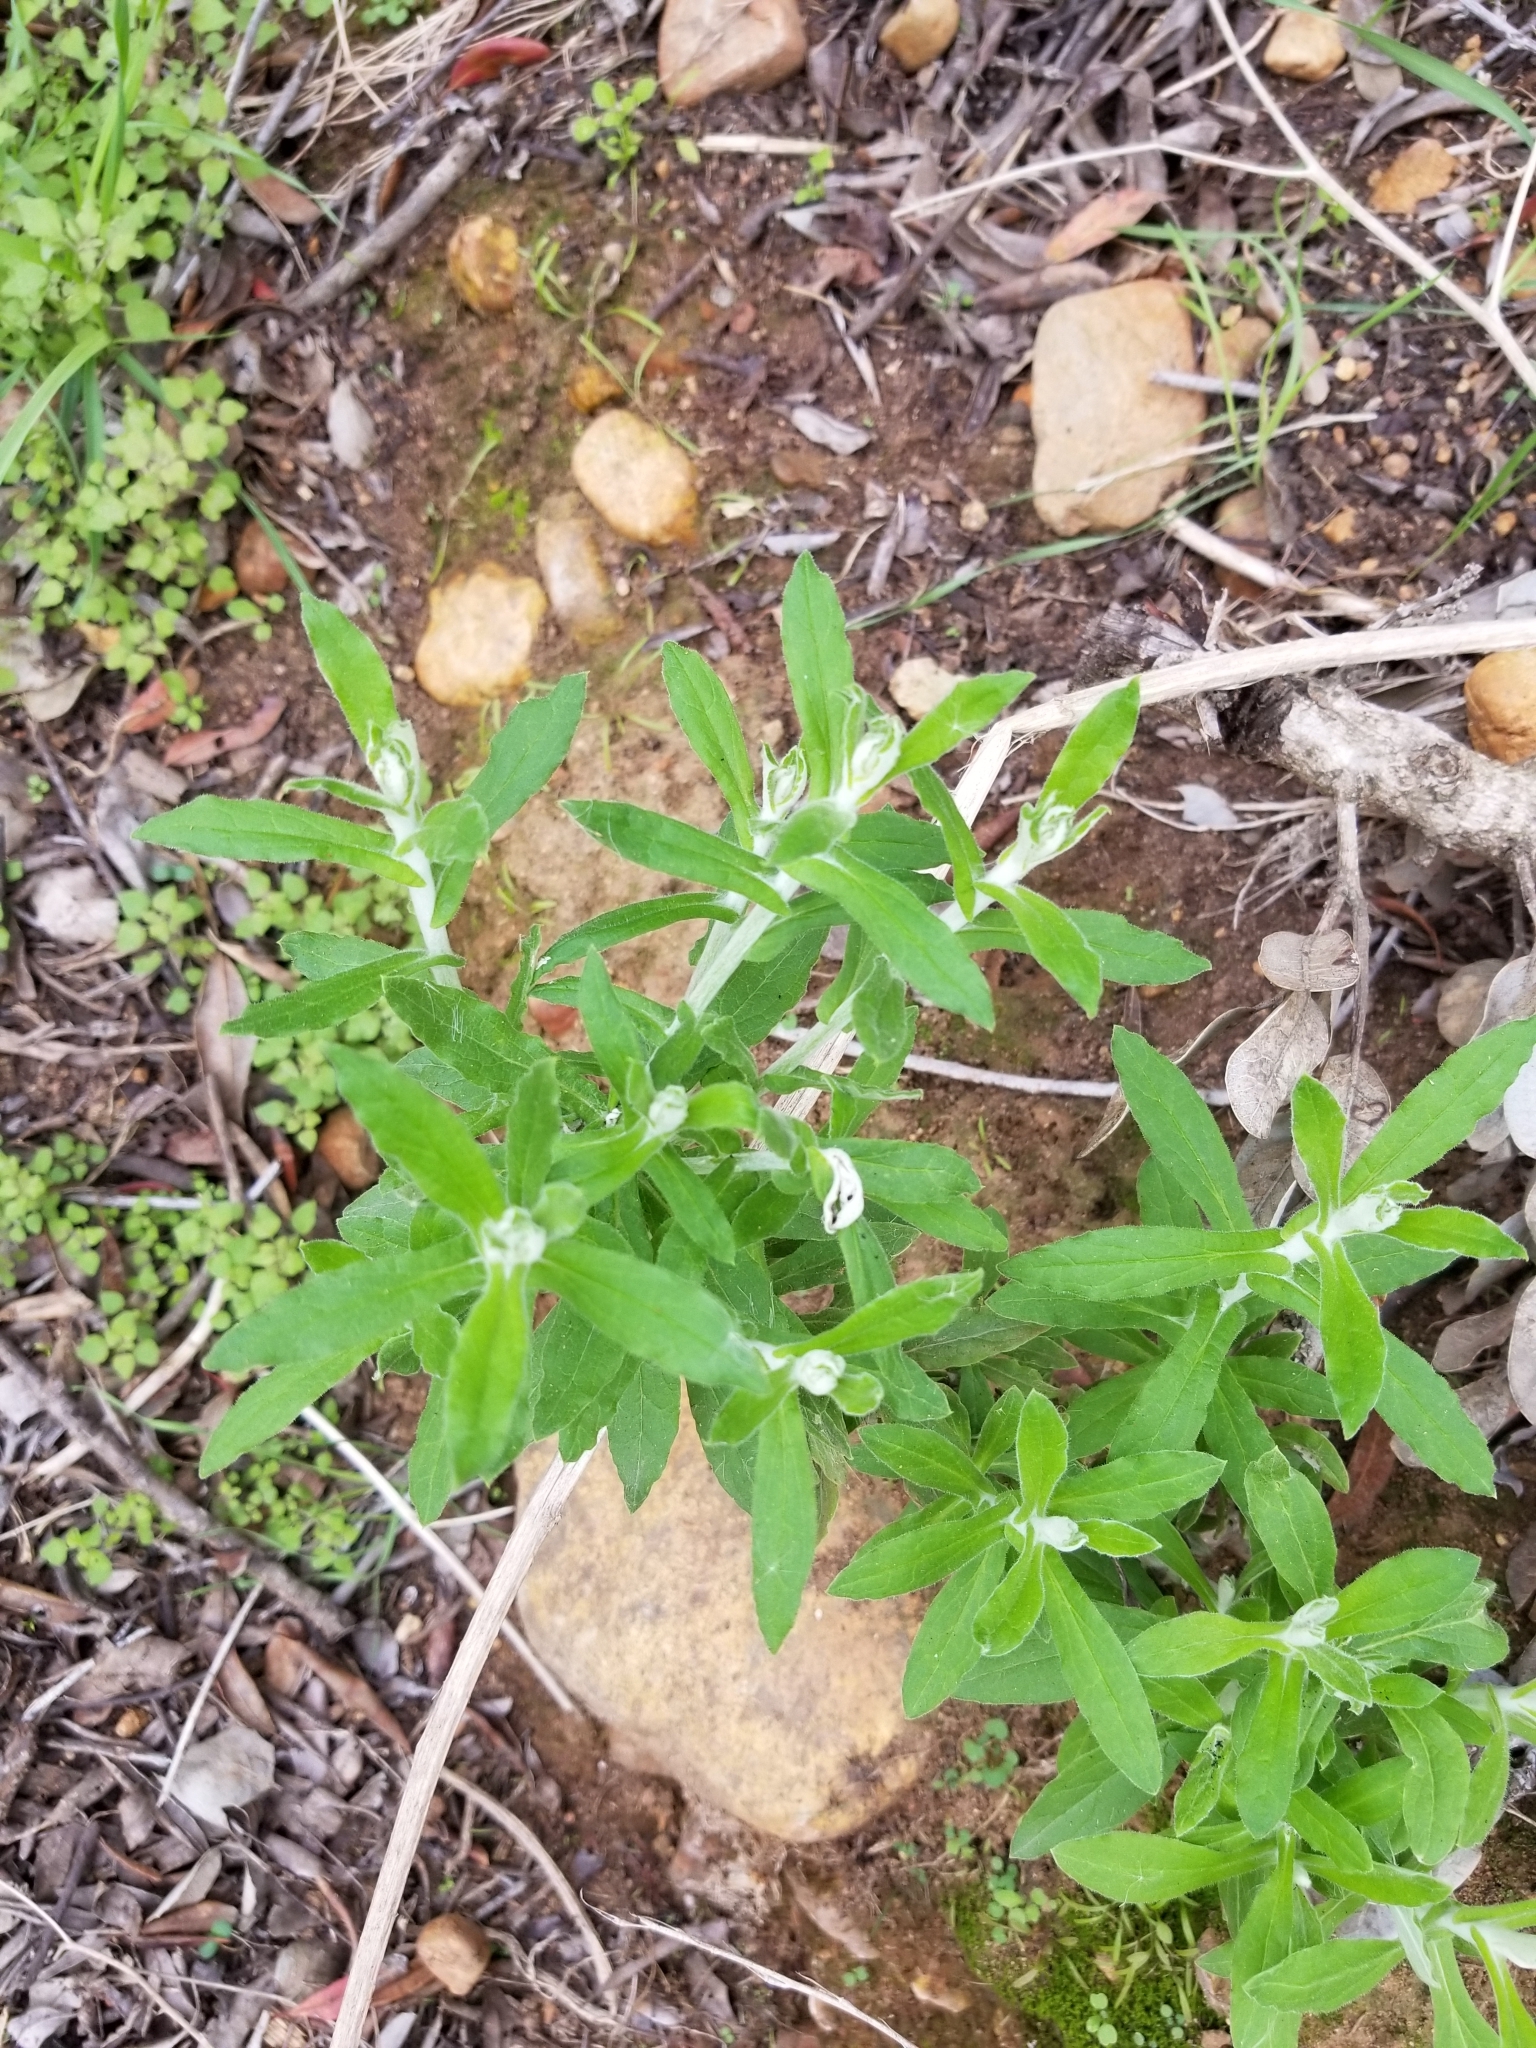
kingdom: Plantae
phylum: Tracheophyta
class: Magnoliopsida
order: Asterales
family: Asteraceae
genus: Pseudognaphalium
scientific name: Pseudognaphalium biolettii
